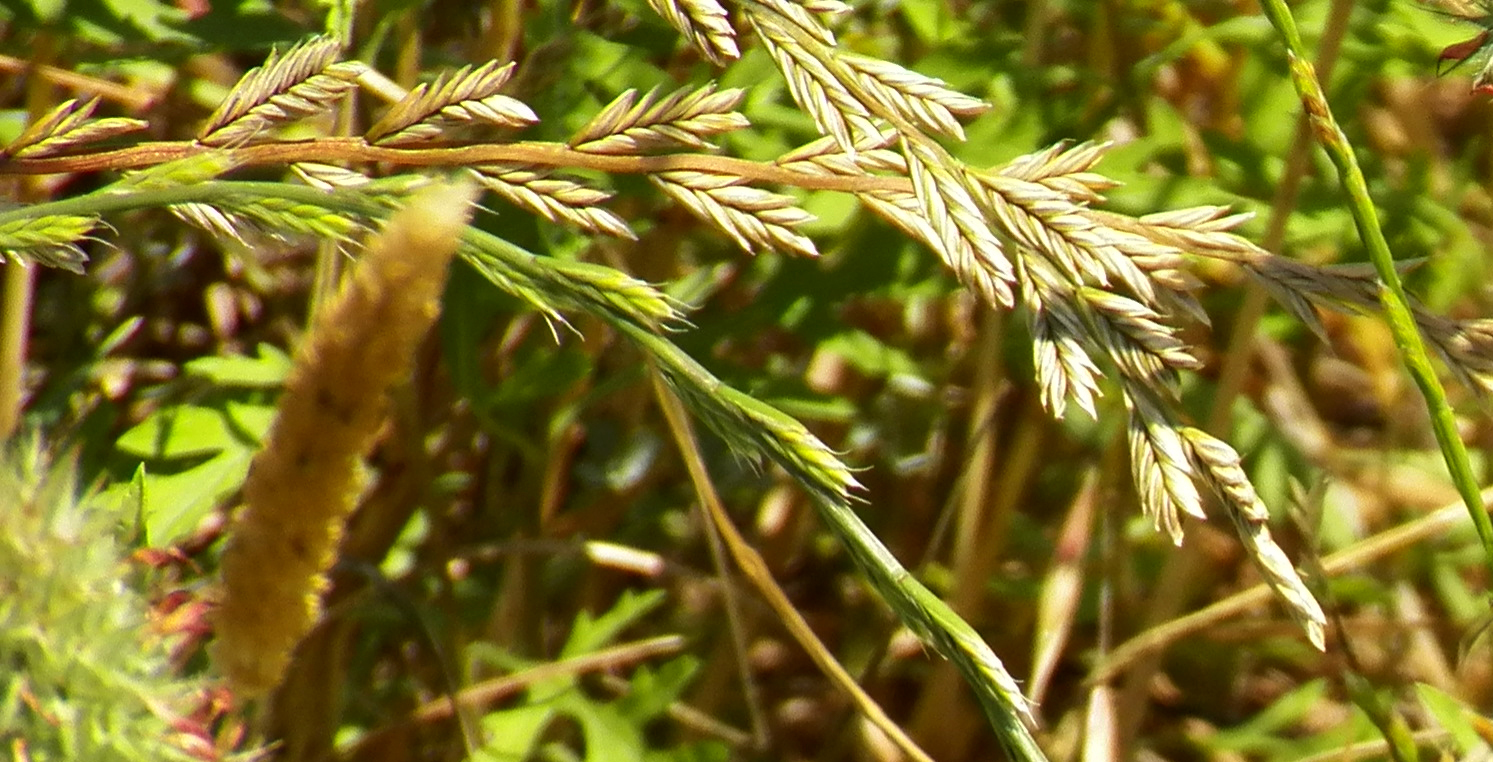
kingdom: Plantae
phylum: Tracheophyta
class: Liliopsida
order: Poales
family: Poaceae
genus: Lolium
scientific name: Lolium perenne
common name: Perennial ryegrass
